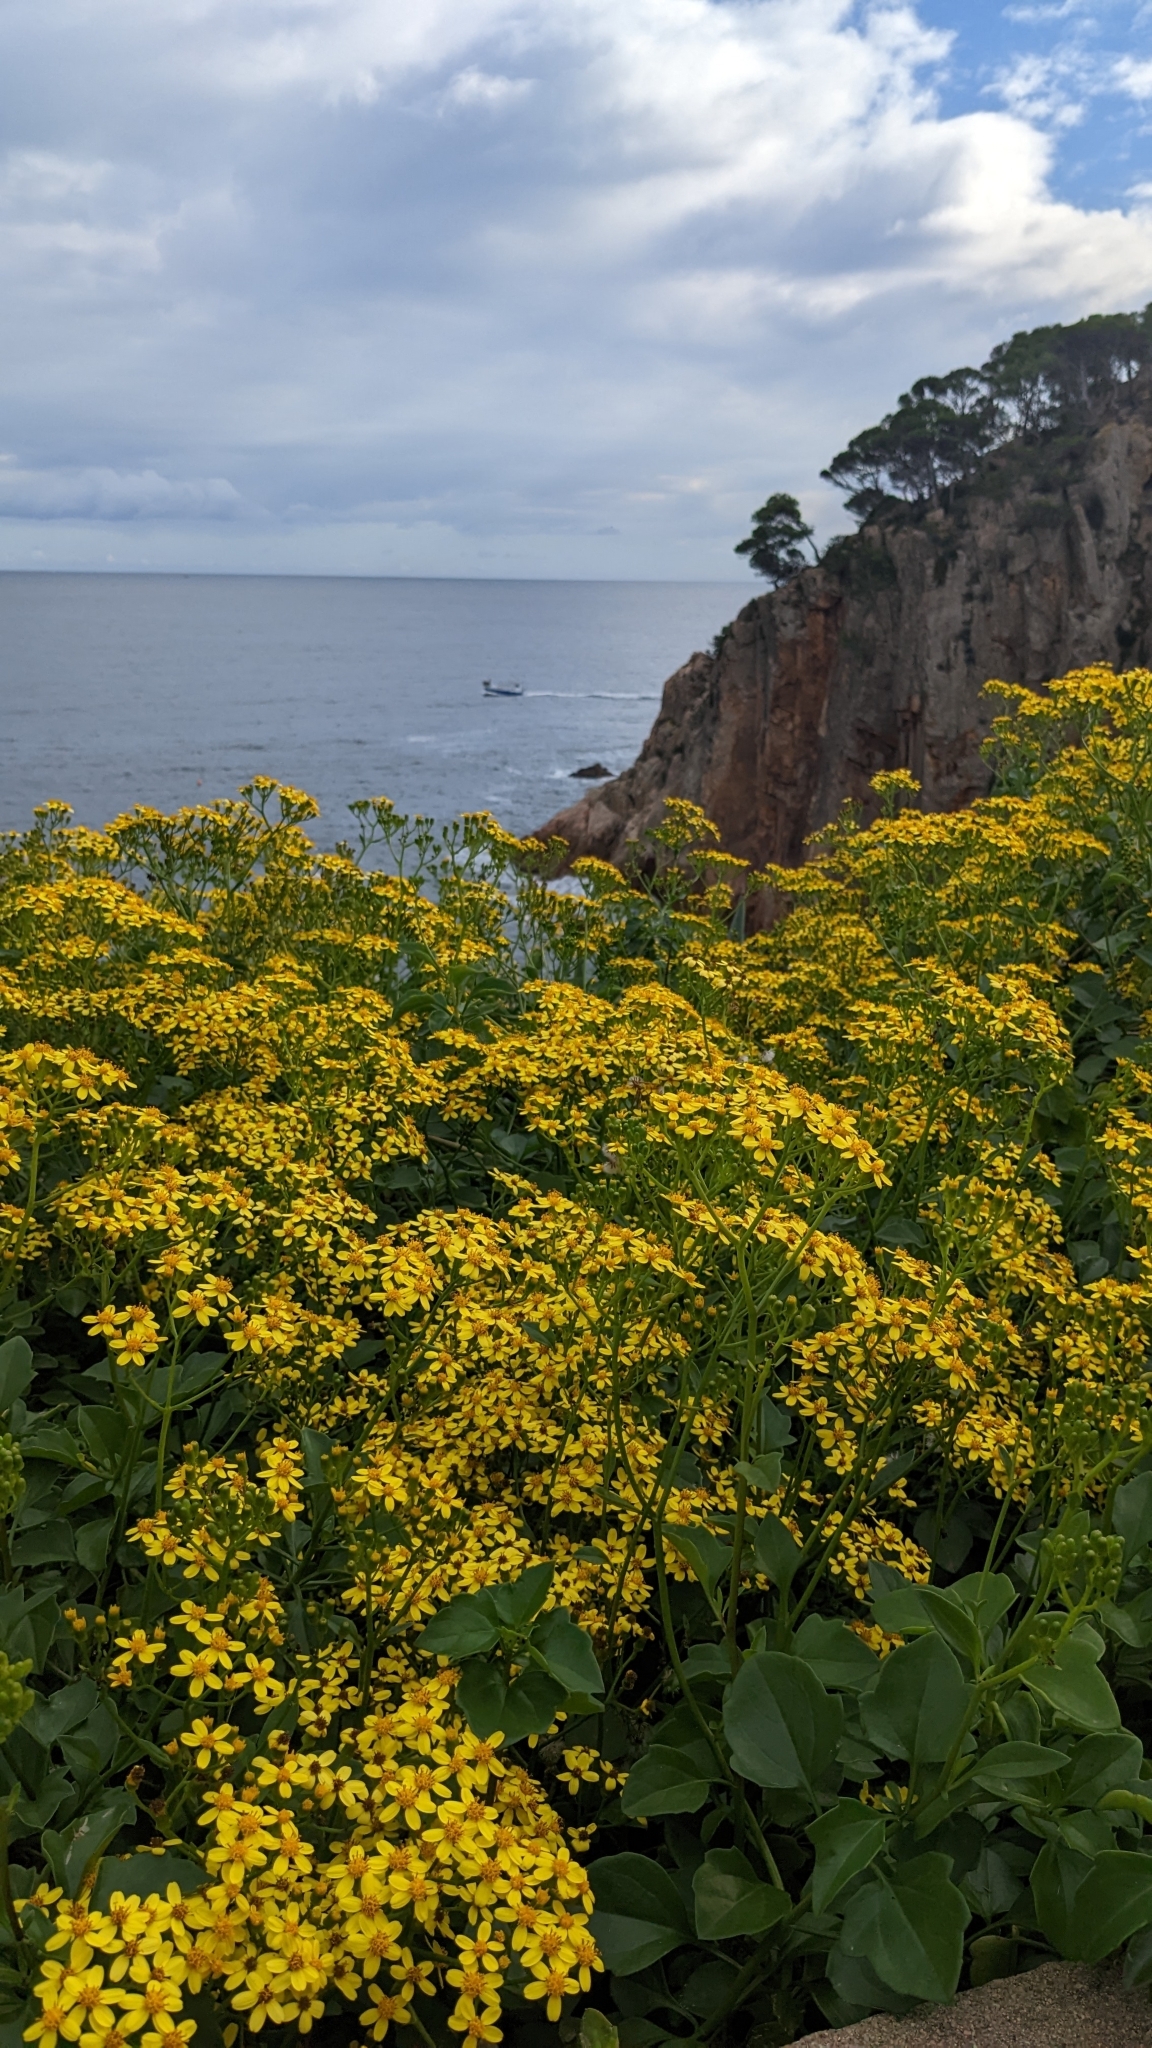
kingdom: Plantae
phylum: Tracheophyta
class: Magnoliopsida
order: Asterales
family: Asteraceae
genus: Senecio
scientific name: Senecio angulatus
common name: Climbing groundsel
